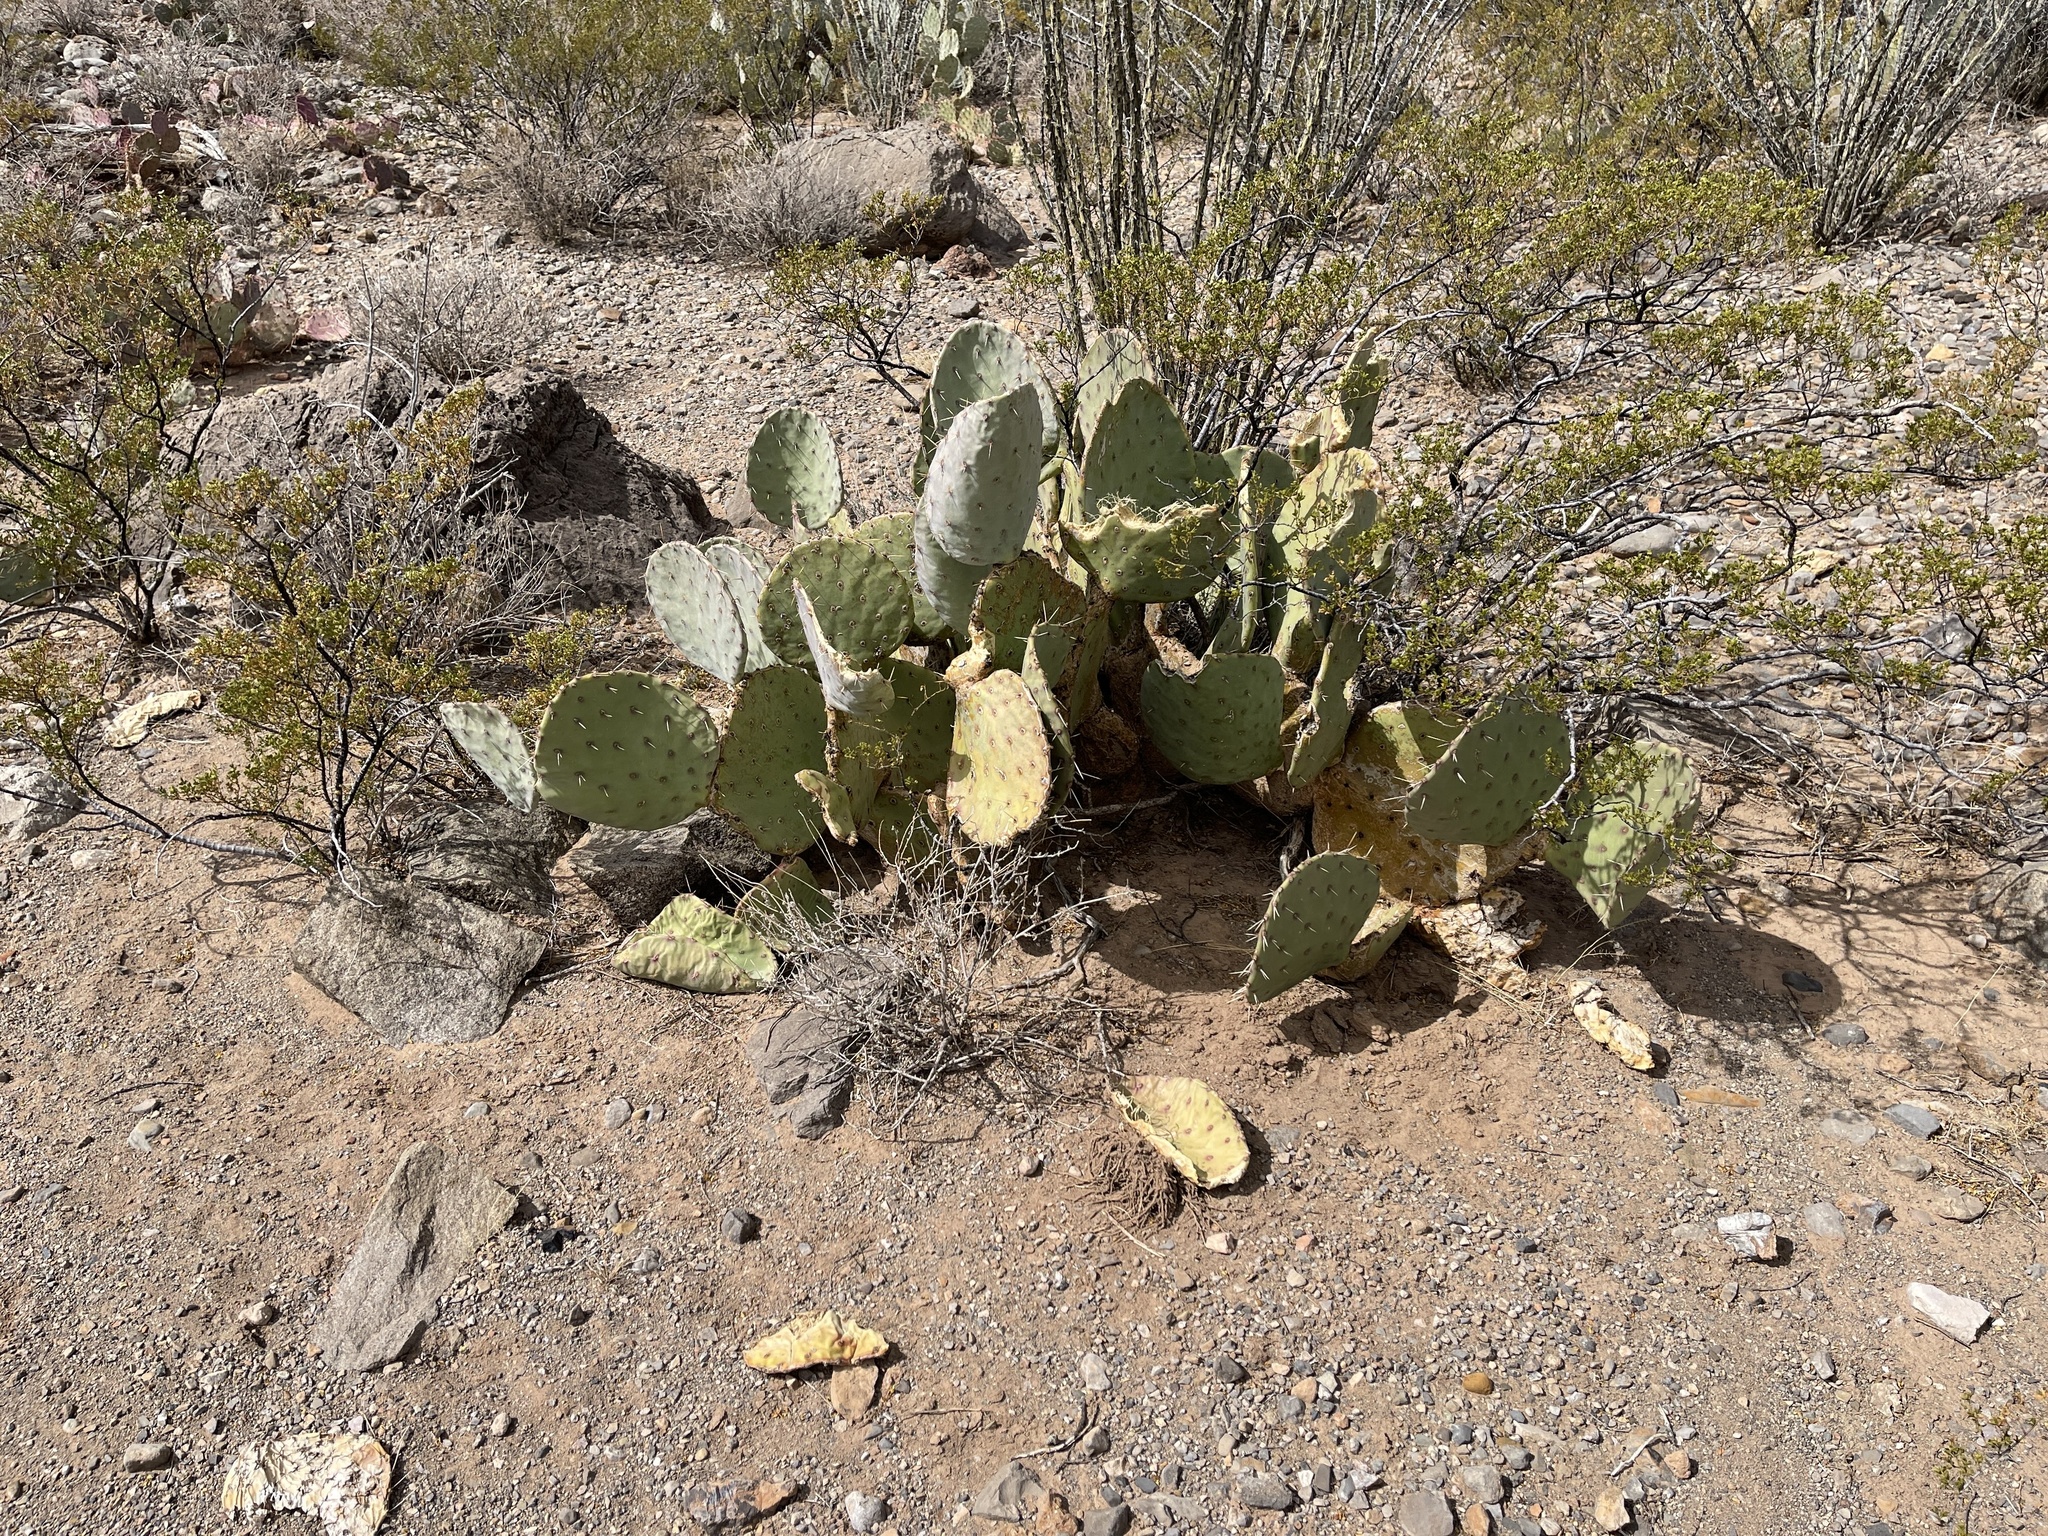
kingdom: Plantae
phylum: Tracheophyta
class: Magnoliopsida
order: Caryophyllales
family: Cactaceae
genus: Opuntia
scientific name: Opuntia engelmannii
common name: Cactus-apple
